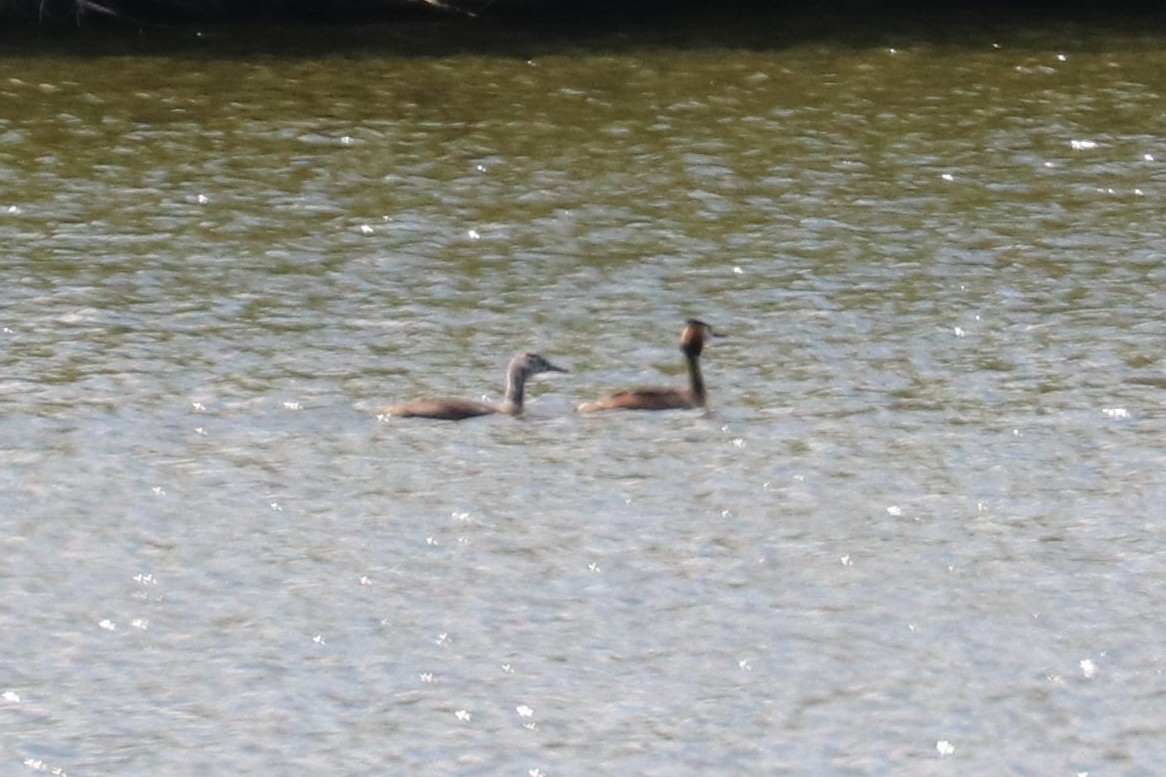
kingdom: Animalia
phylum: Chordata
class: Aves
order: Podicipediformes
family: Podicipedidae
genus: Podiceps
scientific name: Podiceps cristatus
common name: Great crested grebe
